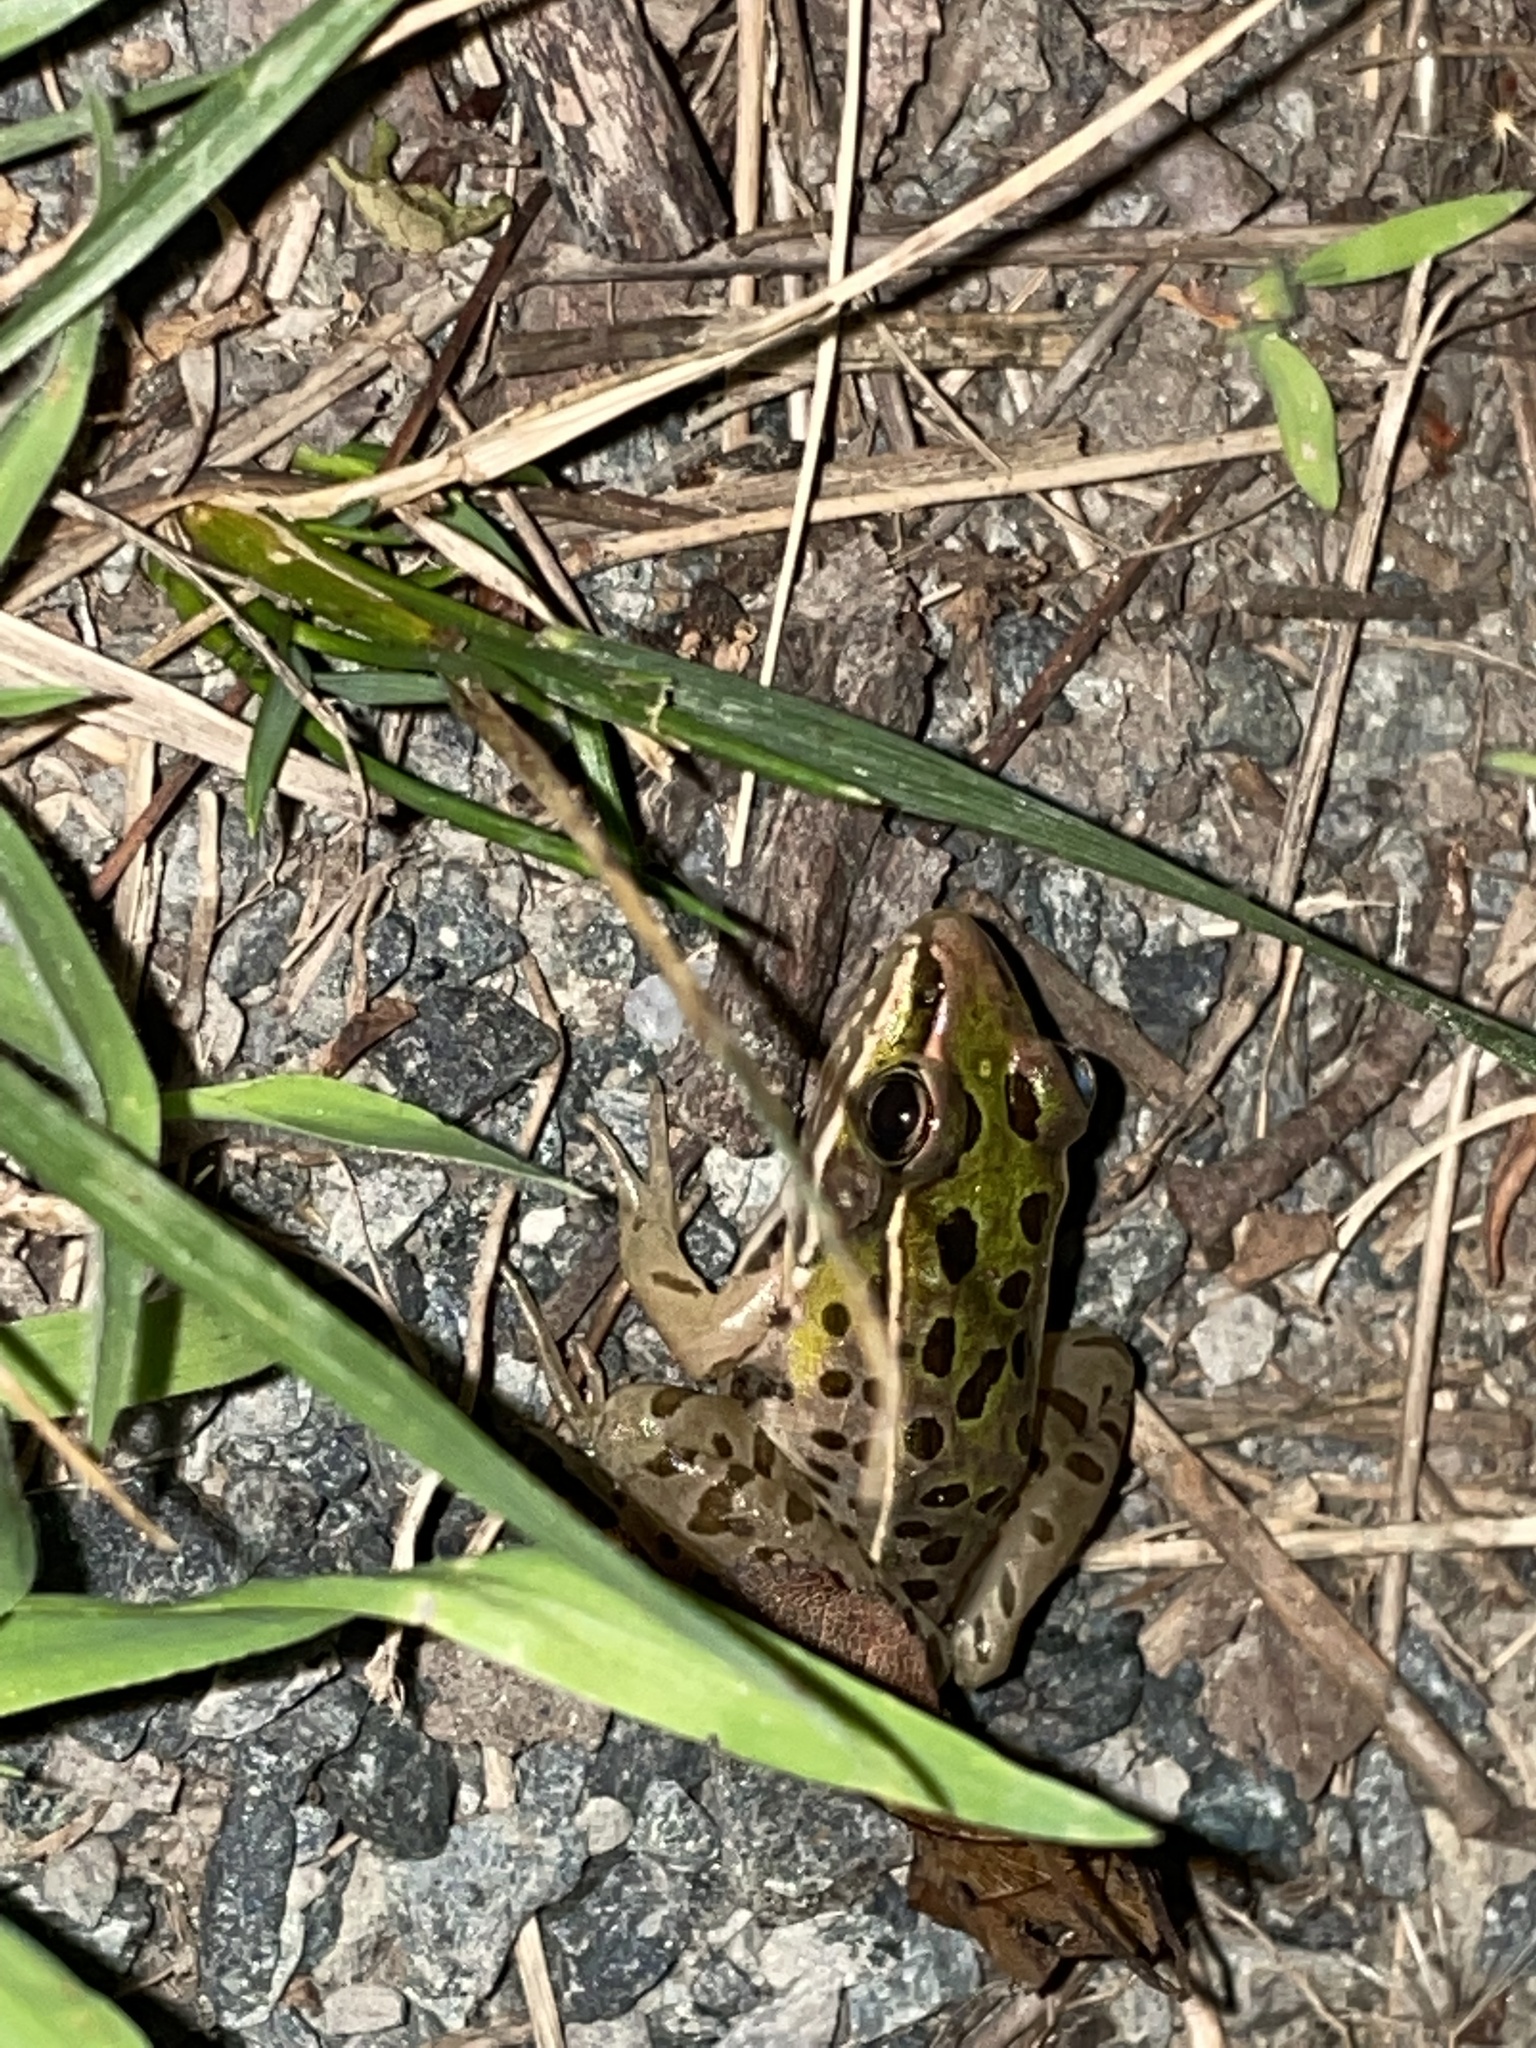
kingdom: Animalia
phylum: Chordata
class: Amphibia
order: Anura
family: Ranidae
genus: Lithobates
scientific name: Lithobates sphenocephalus
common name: Southern leopard frog
